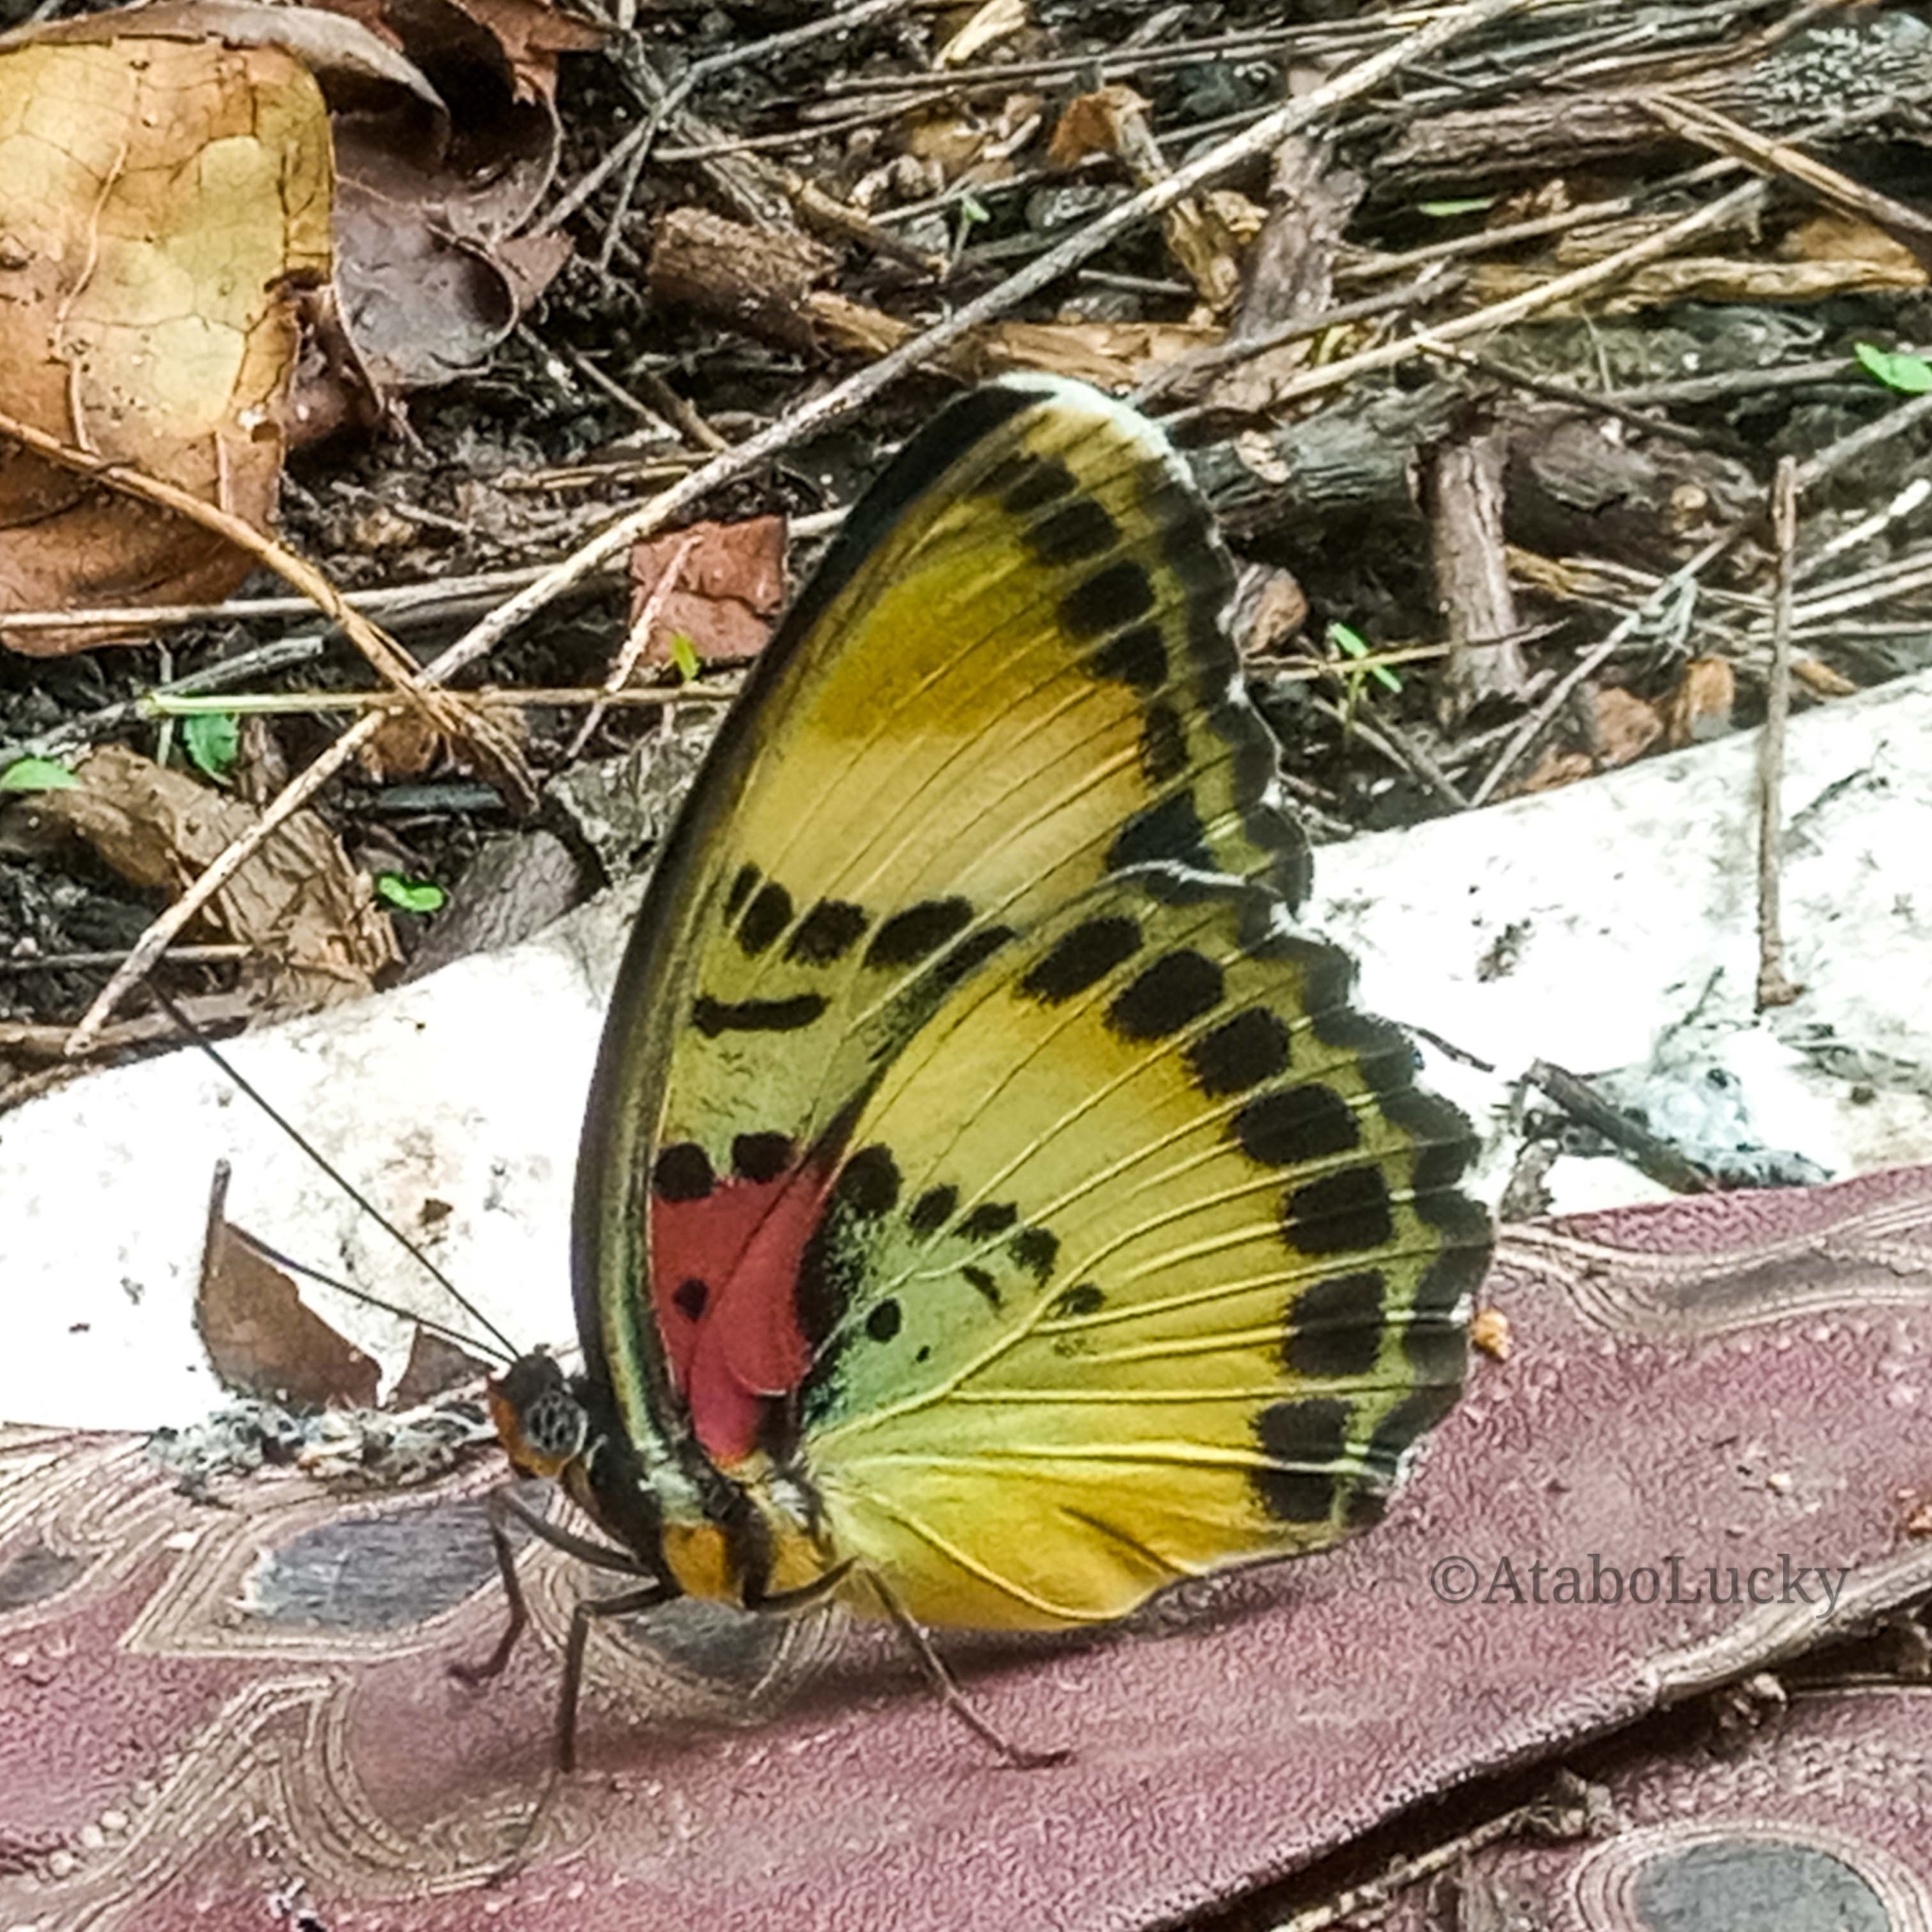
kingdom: Animalia
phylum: Arthropoda
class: Insecta
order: Lepidoptera
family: Nymphalidae
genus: Euphaedra
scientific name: Euphaedra themis
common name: Themis forester
